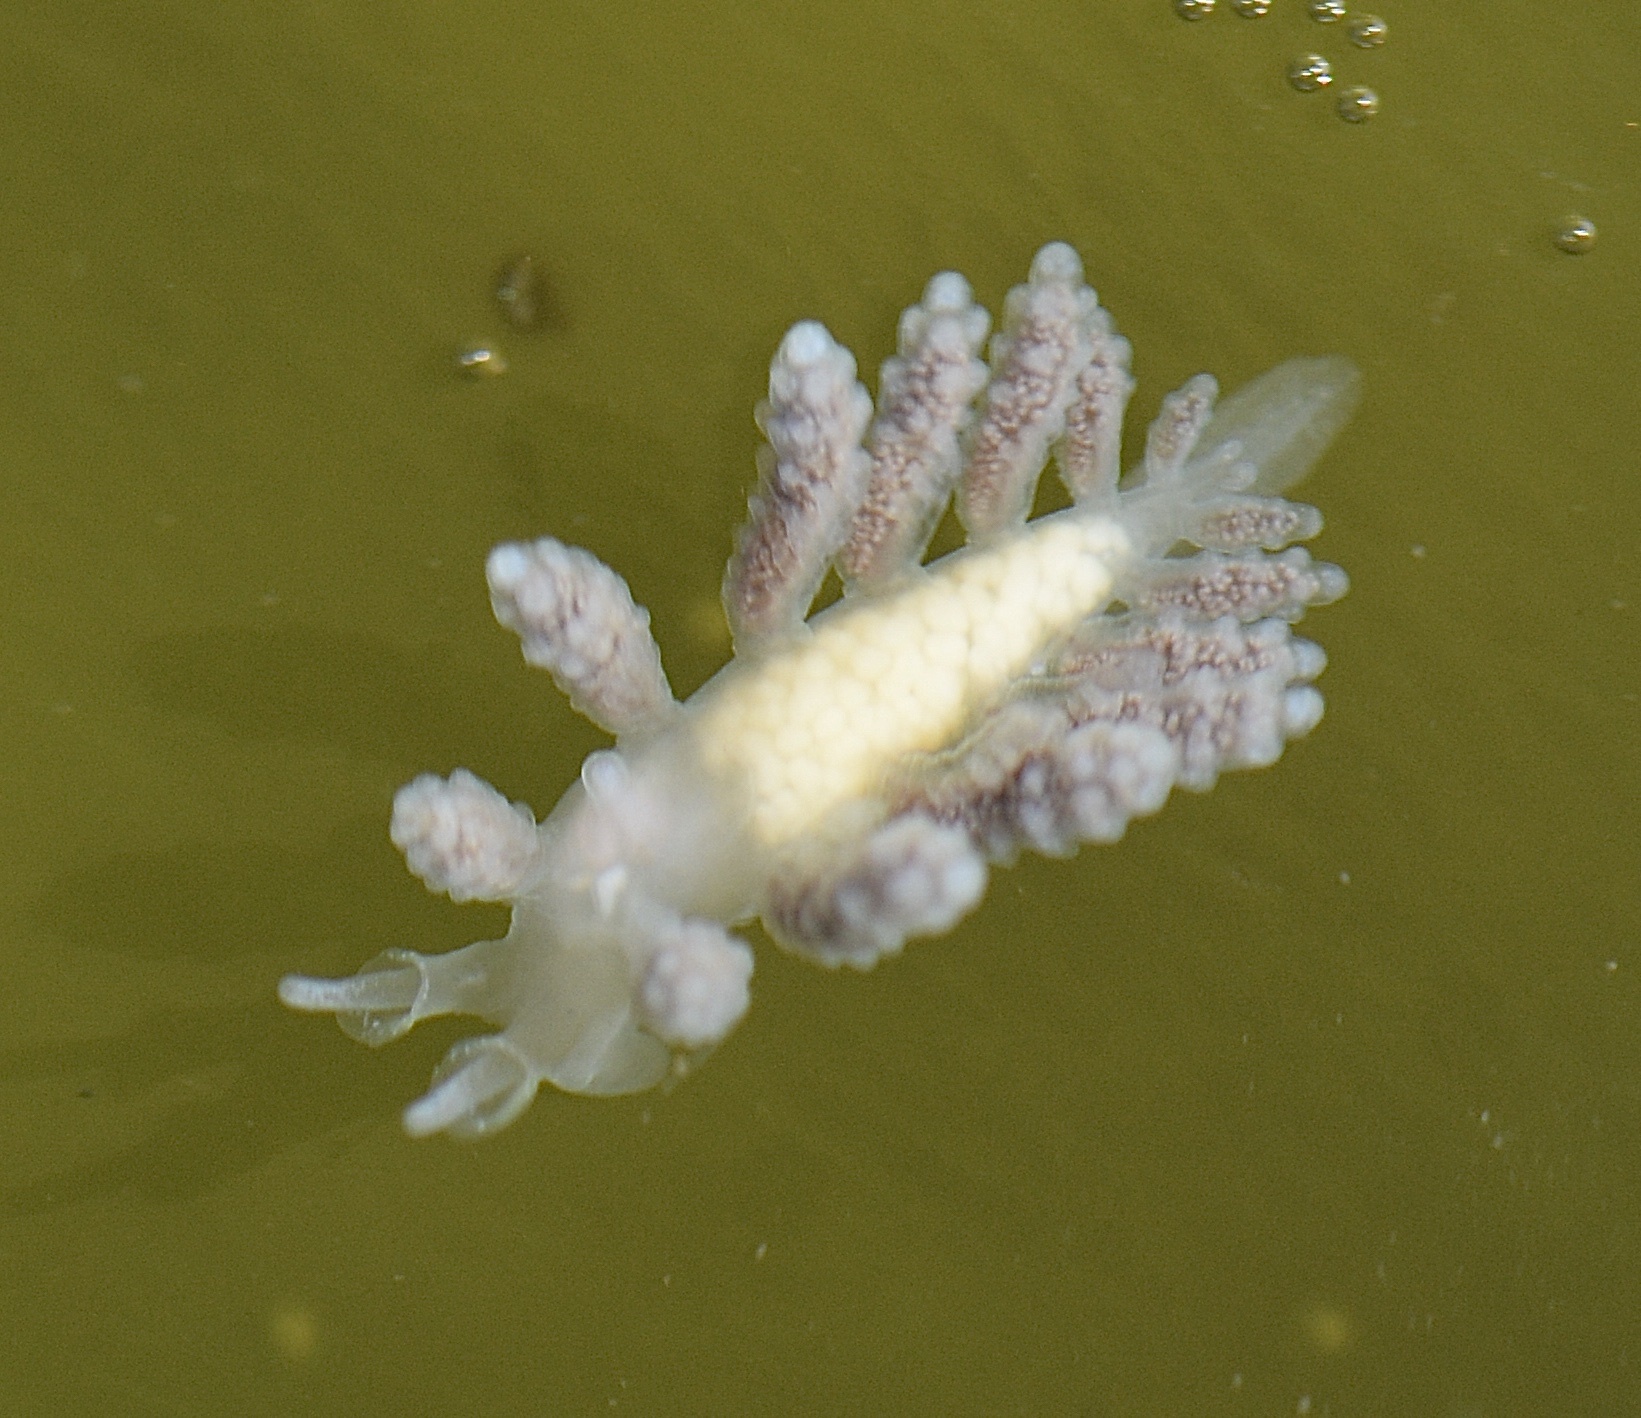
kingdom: Animalia
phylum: Mollusca
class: Gastropoda
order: Nudibranchia
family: Dotidae
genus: Doto
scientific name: Doto amyra
